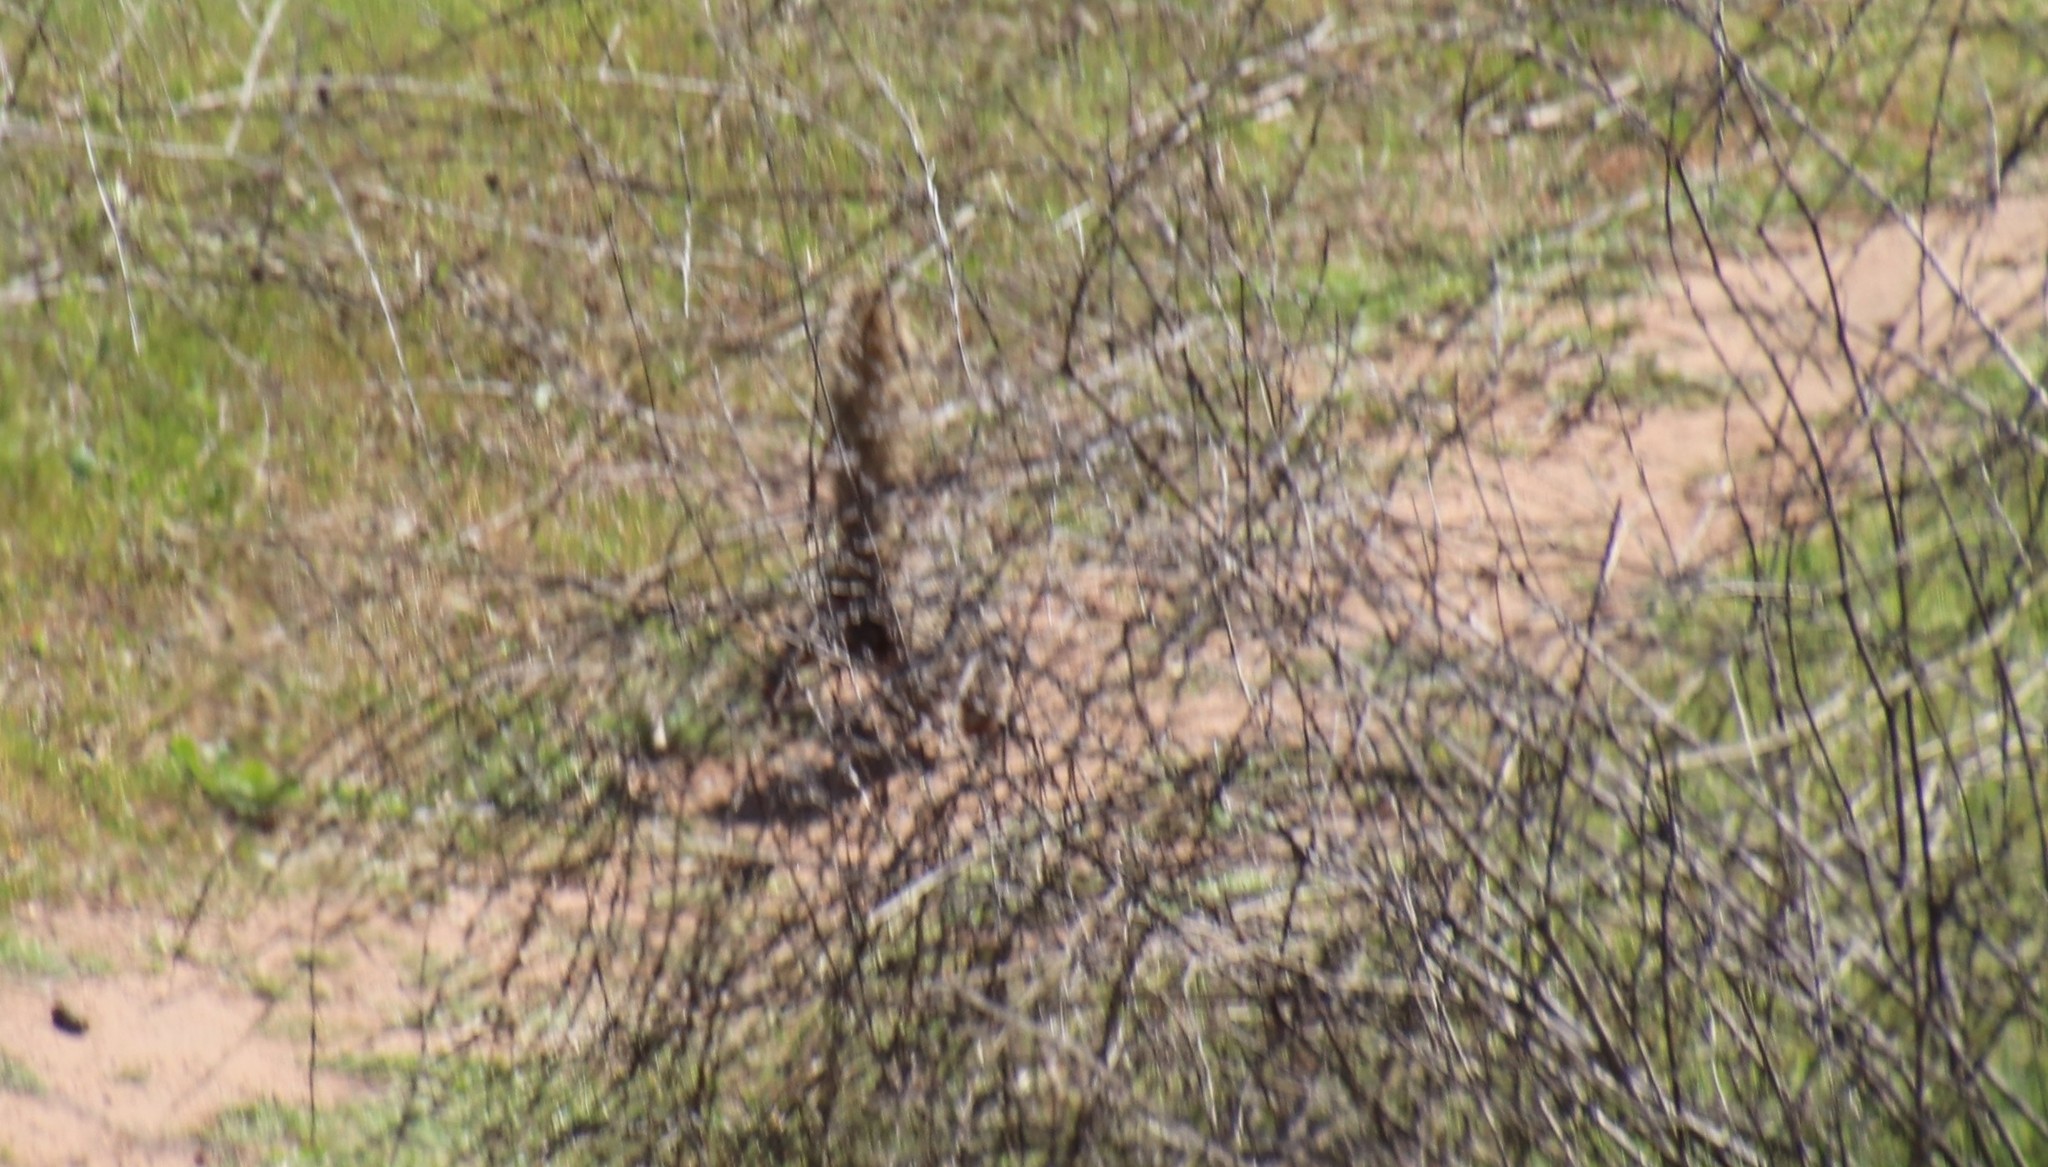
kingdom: Animalia
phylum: Chordata
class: Mammalia
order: Rodentia
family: Sciuridae
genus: Otospermophilus
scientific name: Otospermophilus beecheyi
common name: California ground squirrel
